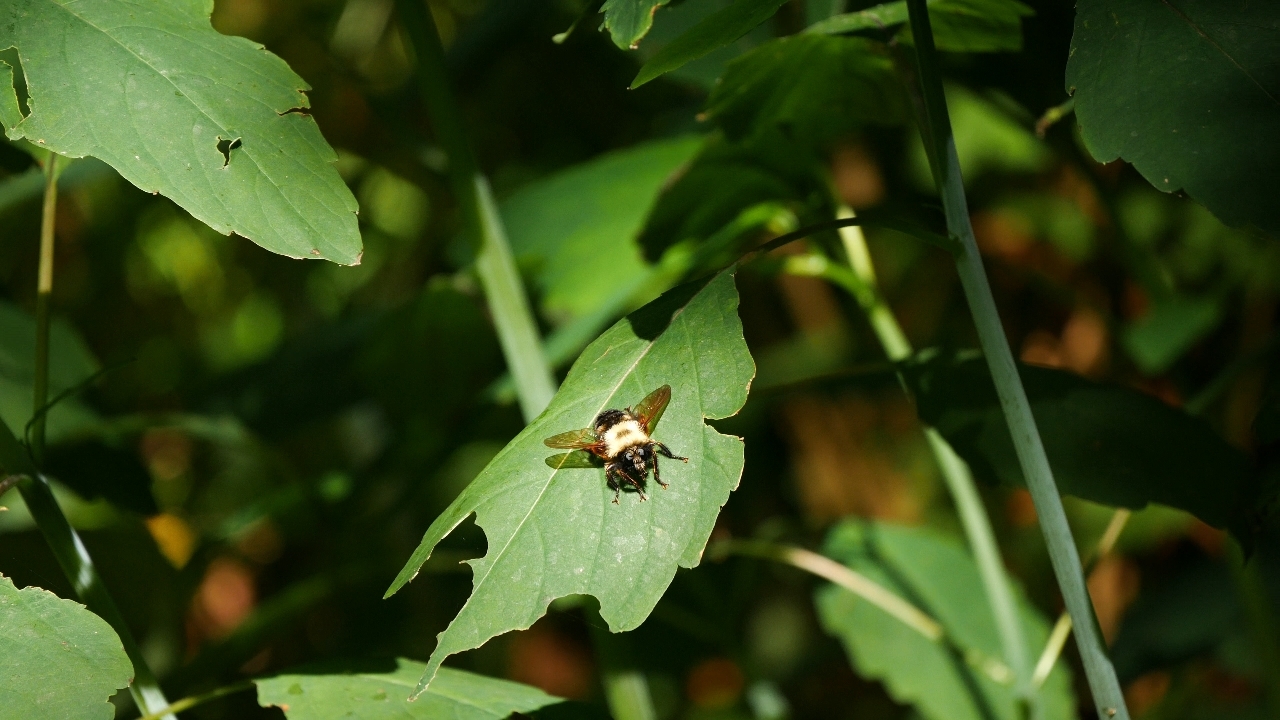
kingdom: Animalia
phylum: Arthropoda
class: Insecta
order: Diptera
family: Asilidae
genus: Laphria
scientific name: Laphria thoracica
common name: Bumble bee mimic robber fly
